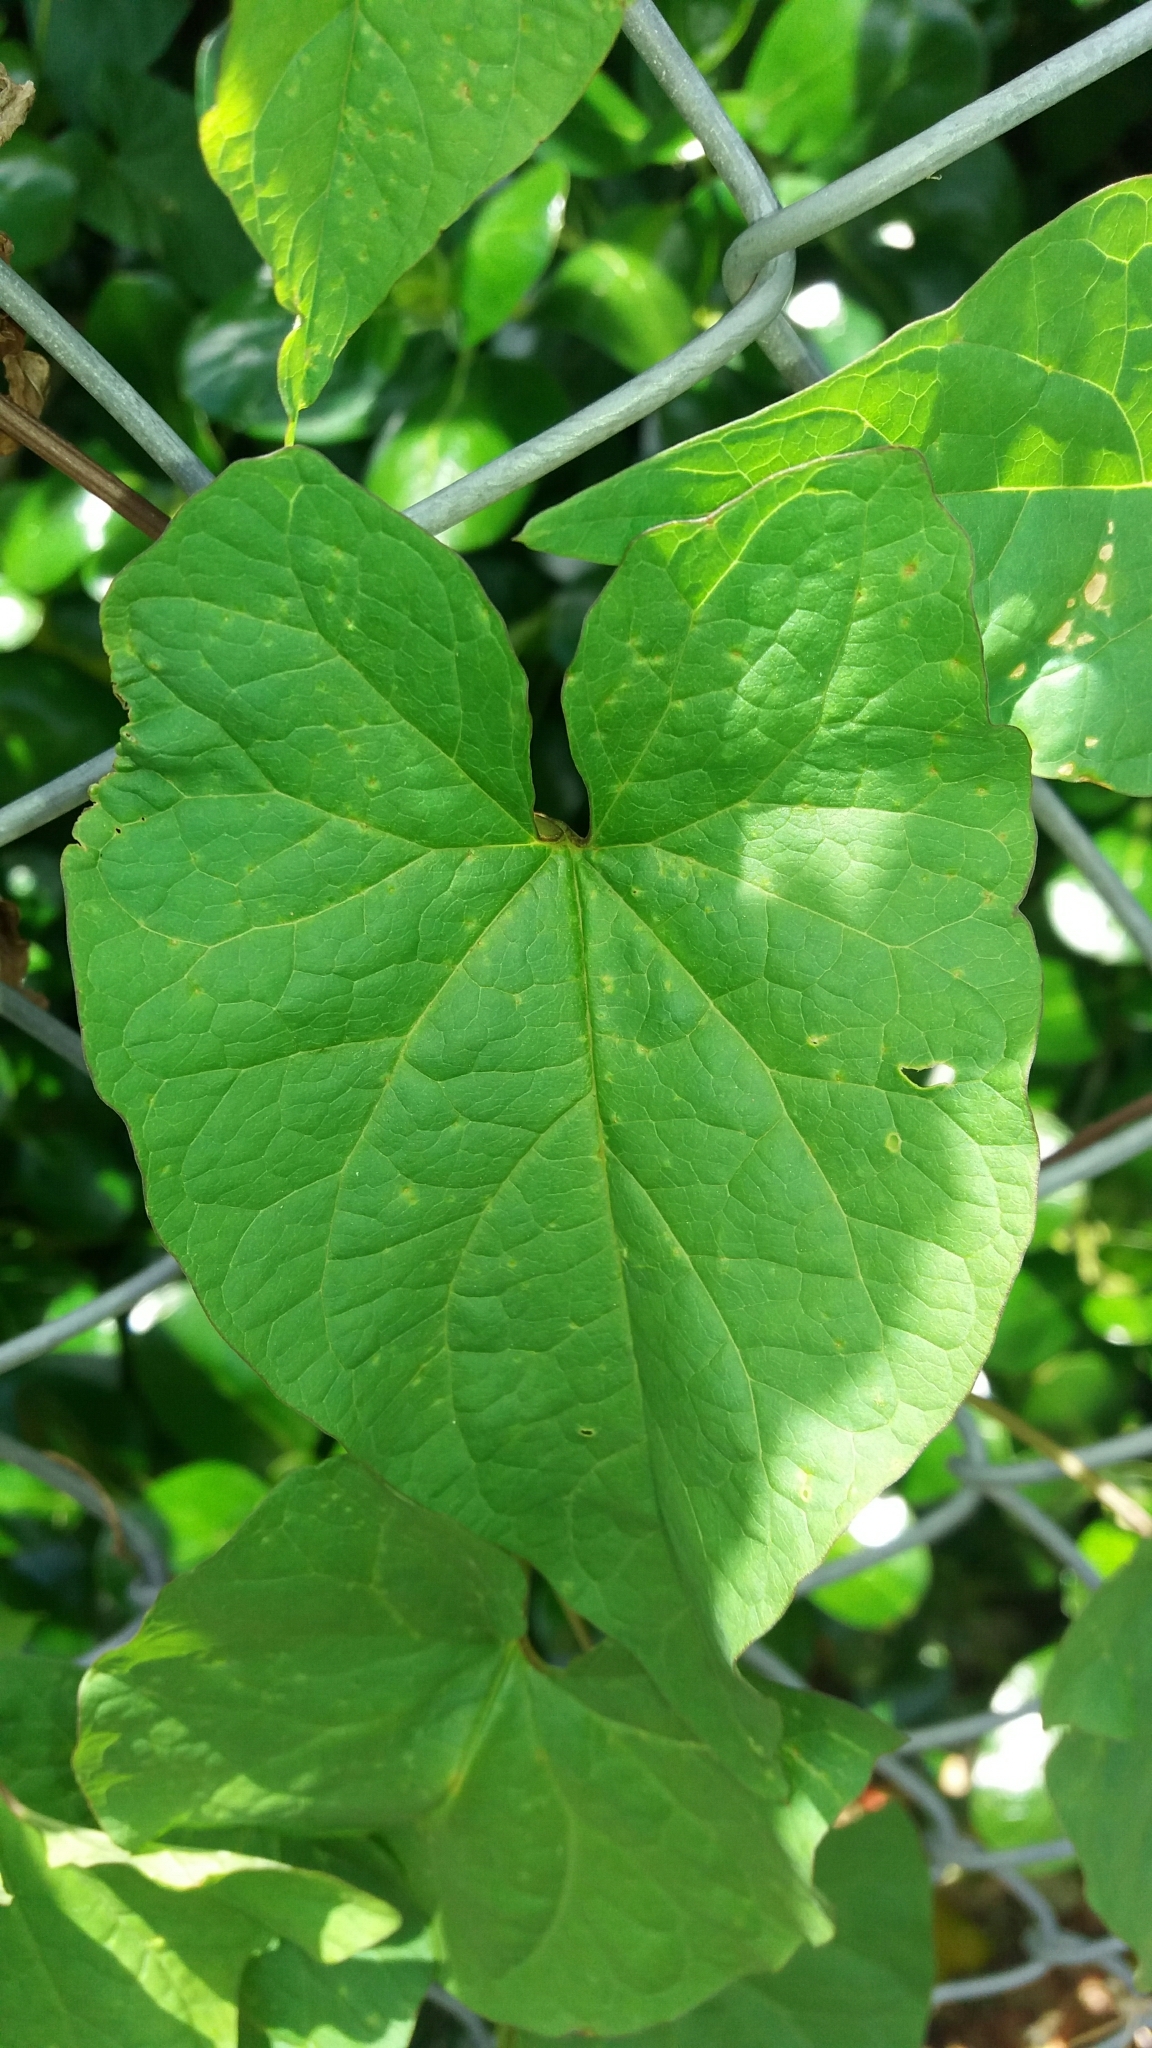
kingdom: Plantae
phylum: Tracheophyta
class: Magnoliopsida
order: Solanales
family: Convolvulaceae
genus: Calystegia
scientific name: Calystegia silvatica
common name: Large bindweed
